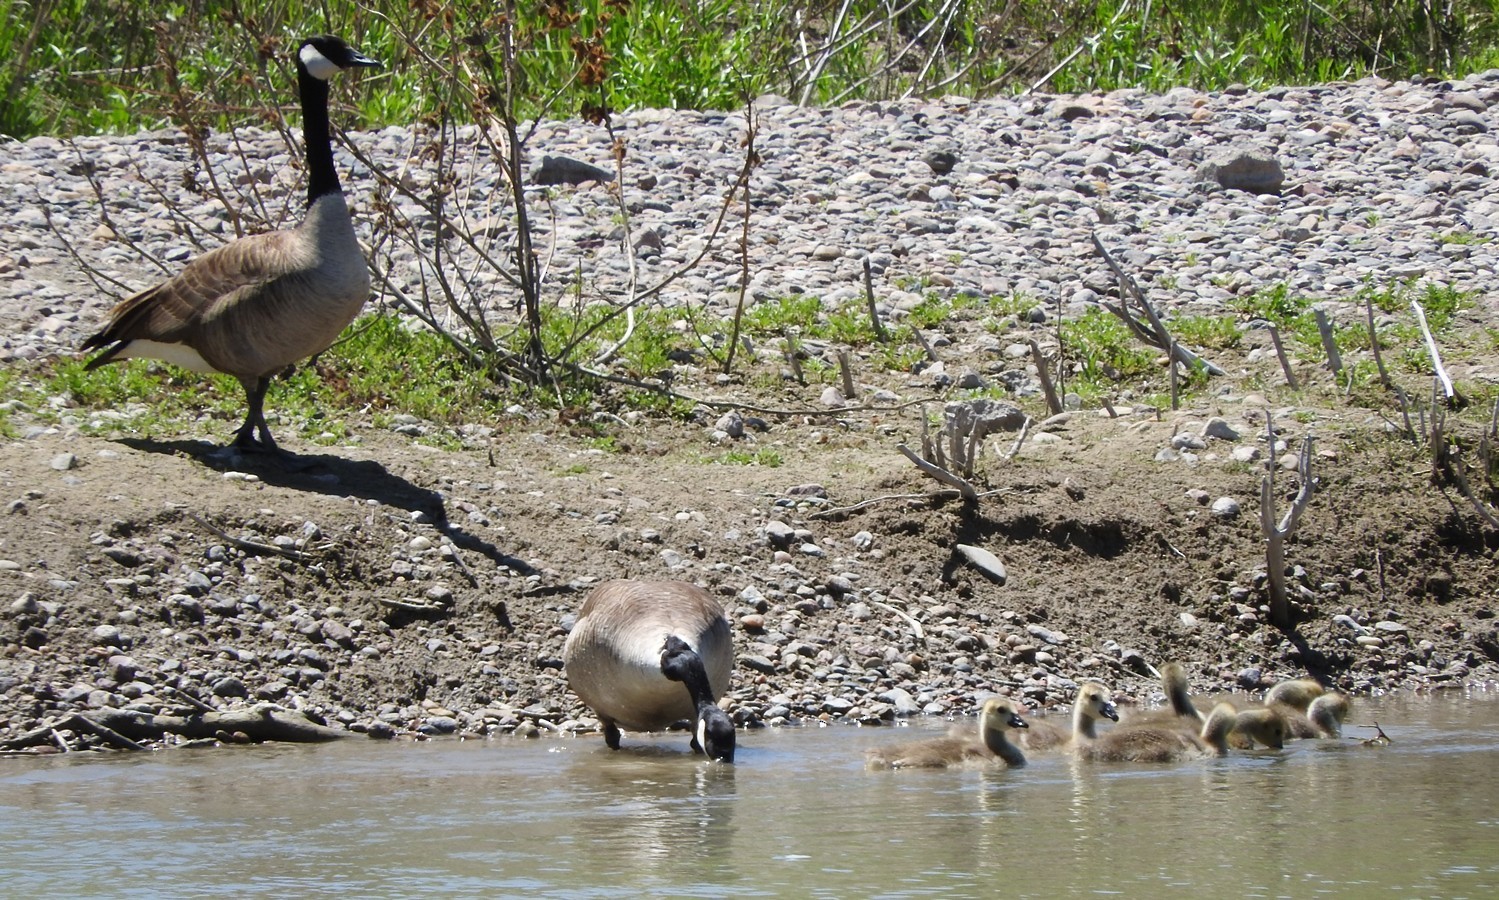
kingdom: Animalia
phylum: Chordata
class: Aves
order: Anseriformes
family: Anatidae
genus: Branta
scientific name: Branta canadensis
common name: Canada goose
